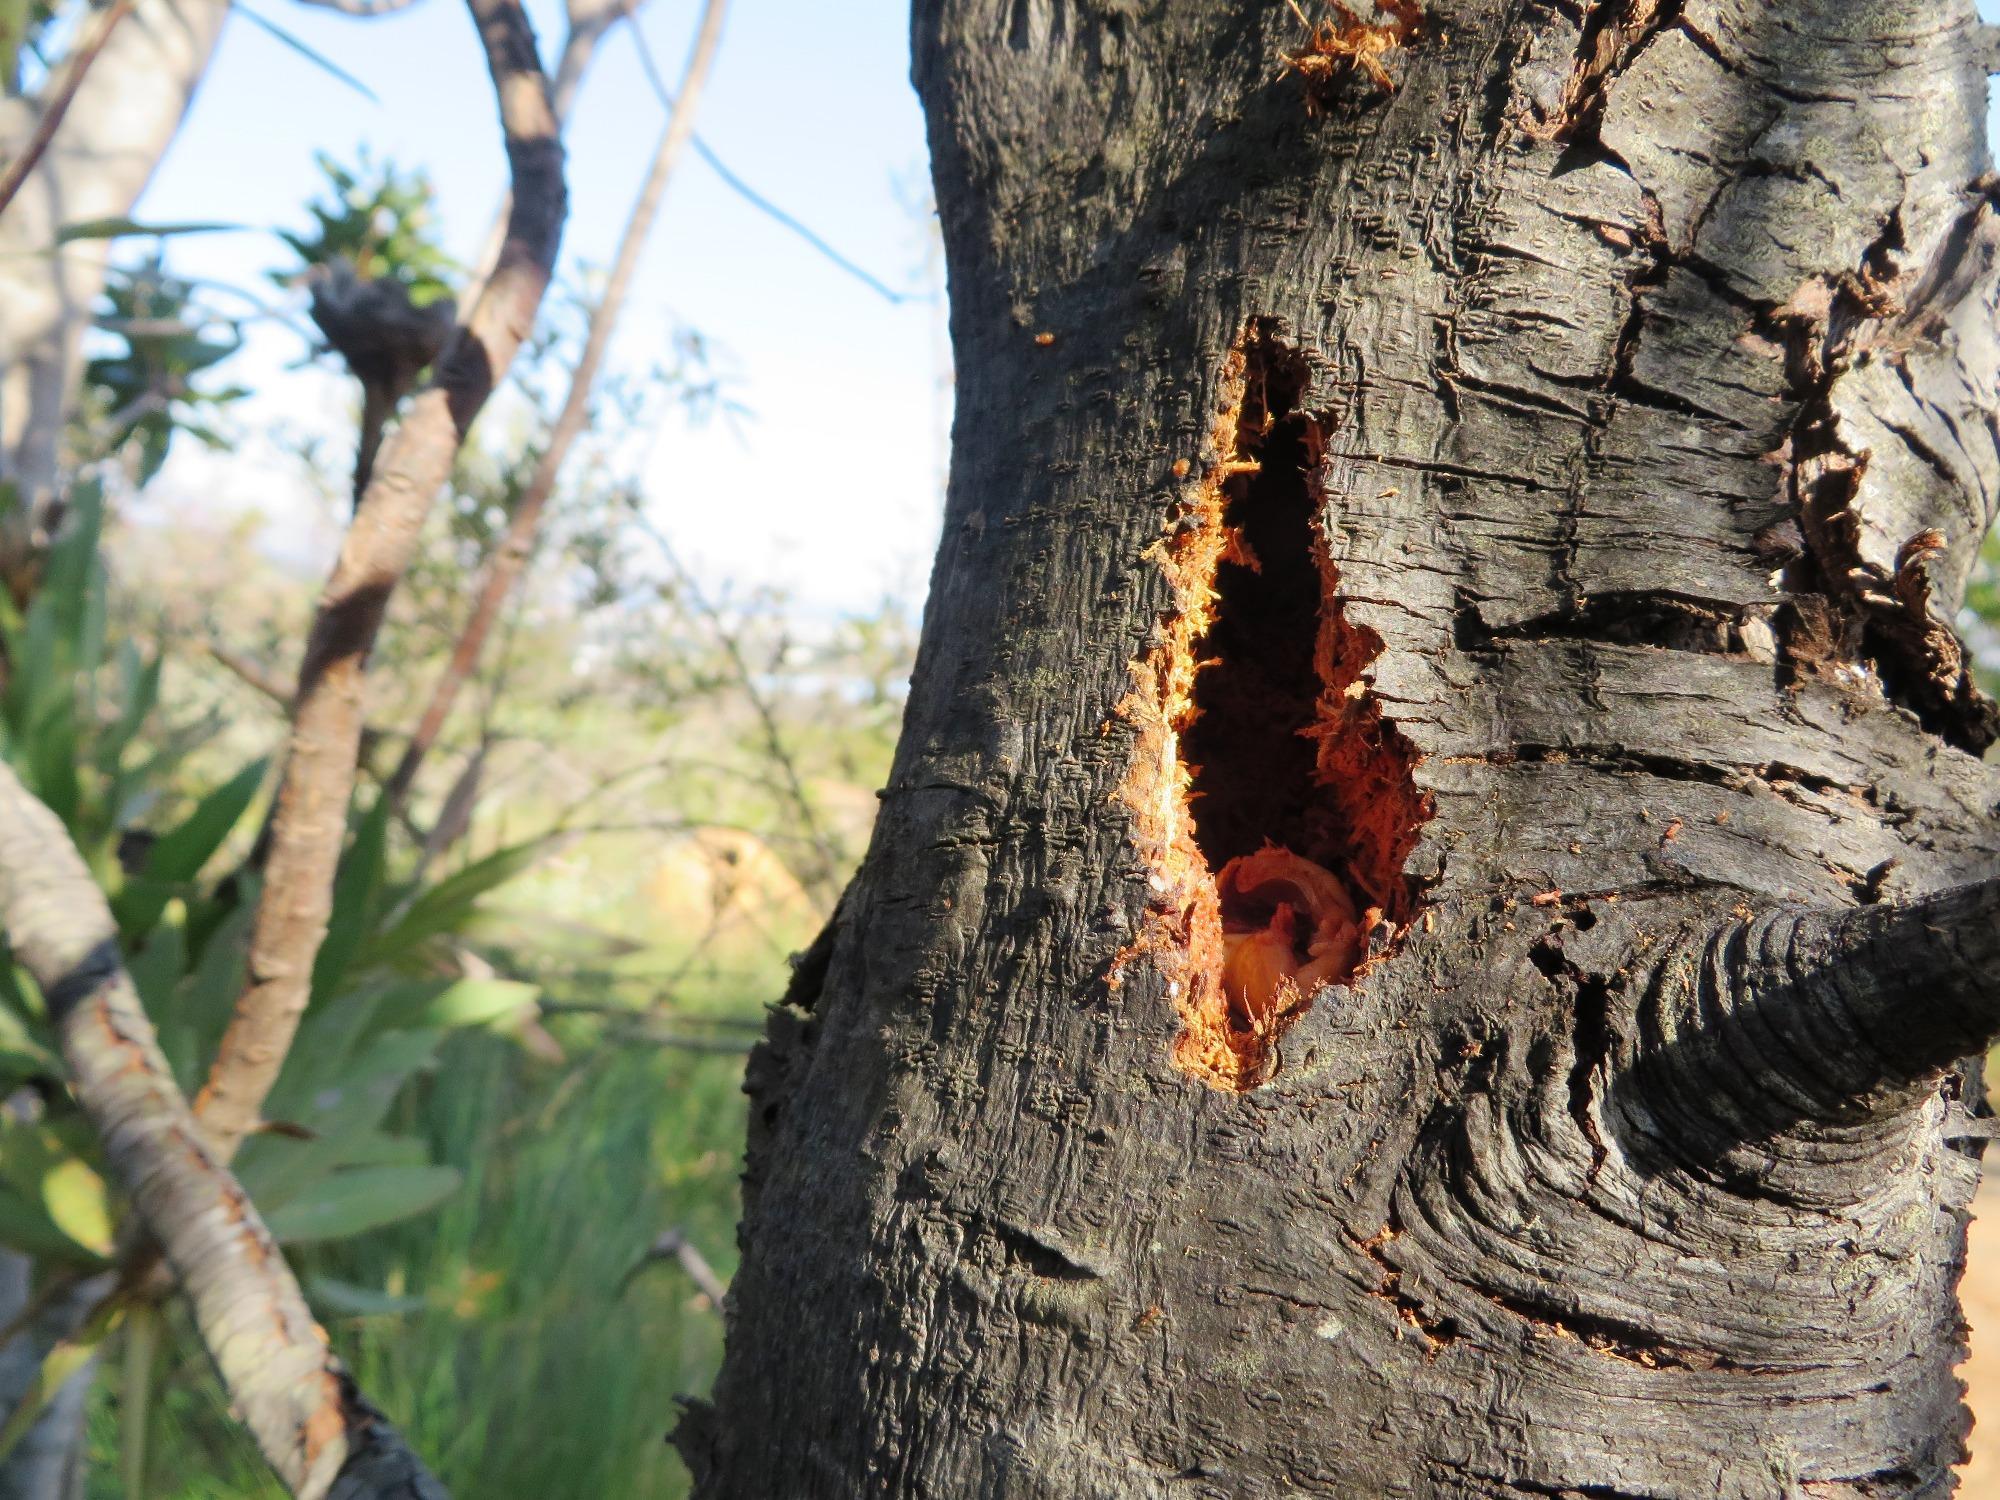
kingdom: Animalia
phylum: Chordata
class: Aves
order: Piciformes
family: Picidae
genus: Dendropicos
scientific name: Dendropicos griseocephalus
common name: Olive woodpecker
